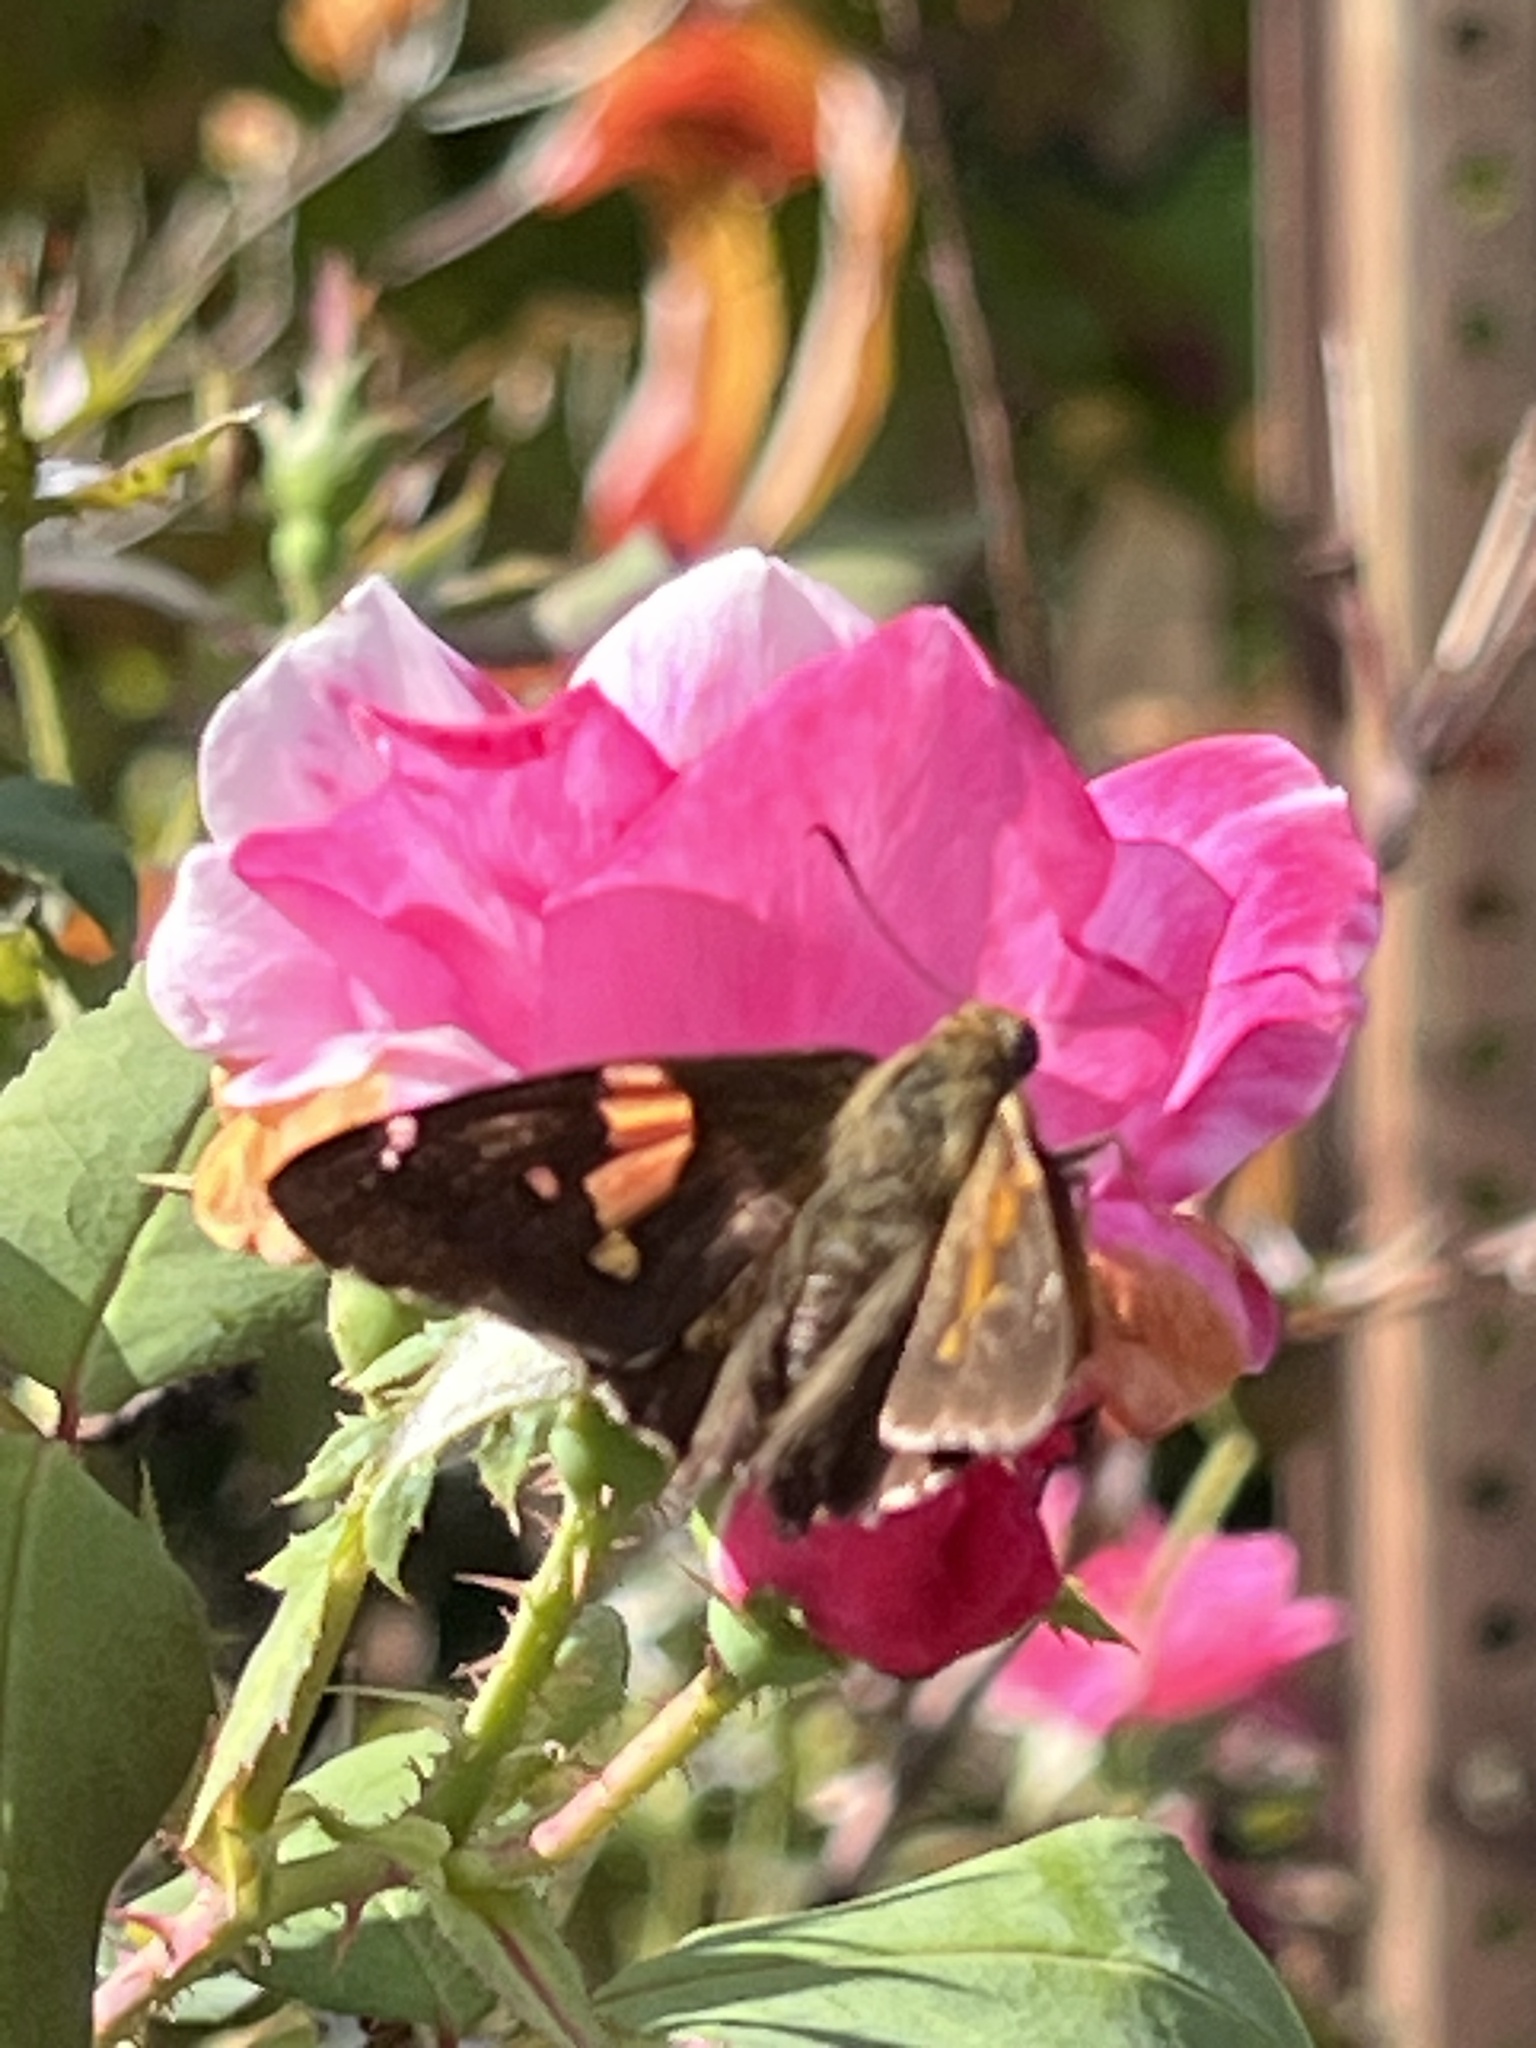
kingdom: Animalia
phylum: Arthropoda
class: Insecta
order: Lepidoptera
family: Hesperiidae
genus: Epargyreus
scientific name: Epargyreus clarus
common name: Silver-spotted skipper
